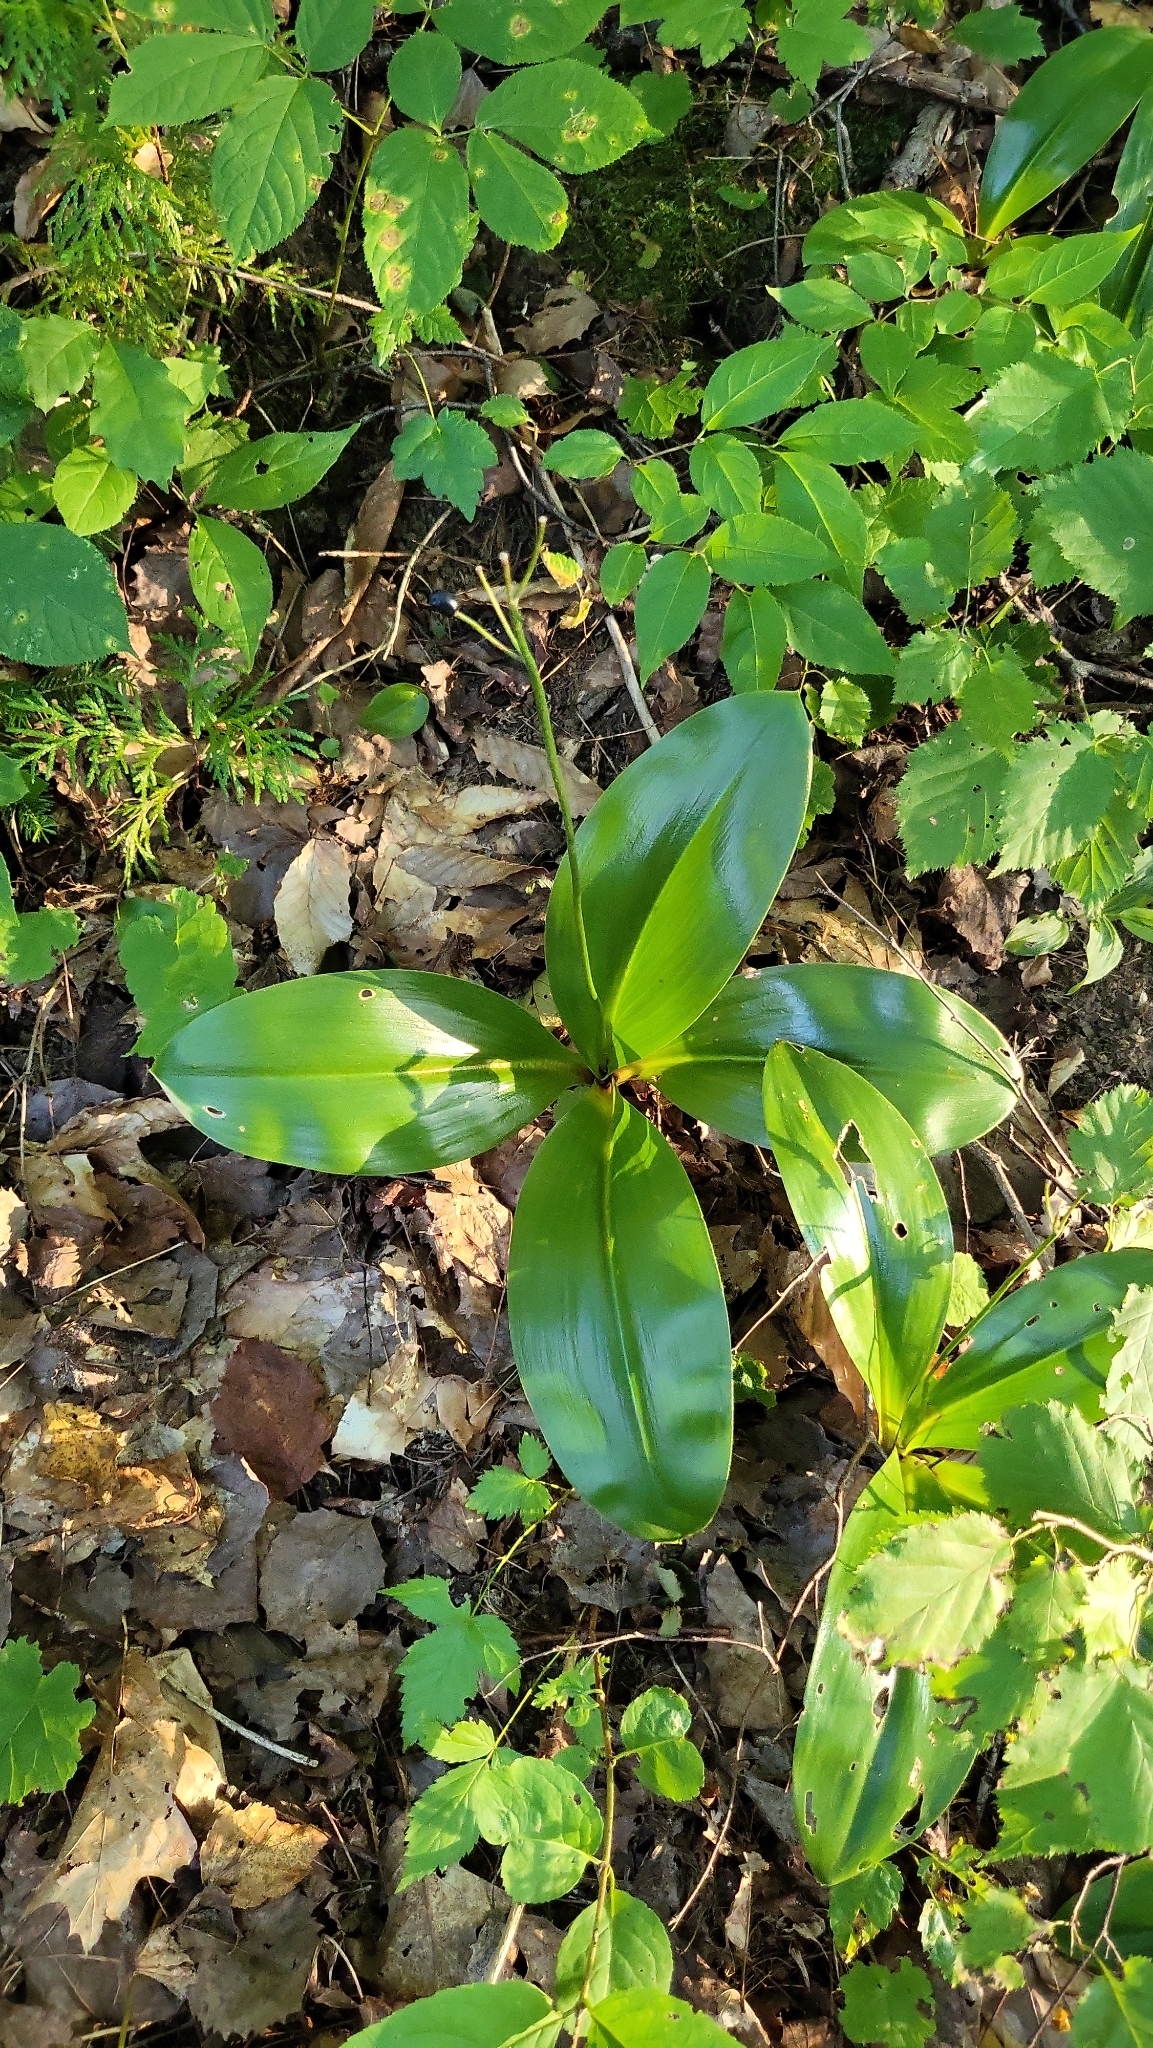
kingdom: Plantae
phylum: Tracheophyta
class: Liliopsida
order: Liliales
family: Liliaceae
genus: Clintonia
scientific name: Clintonia borealis
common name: Yellow clintonia
